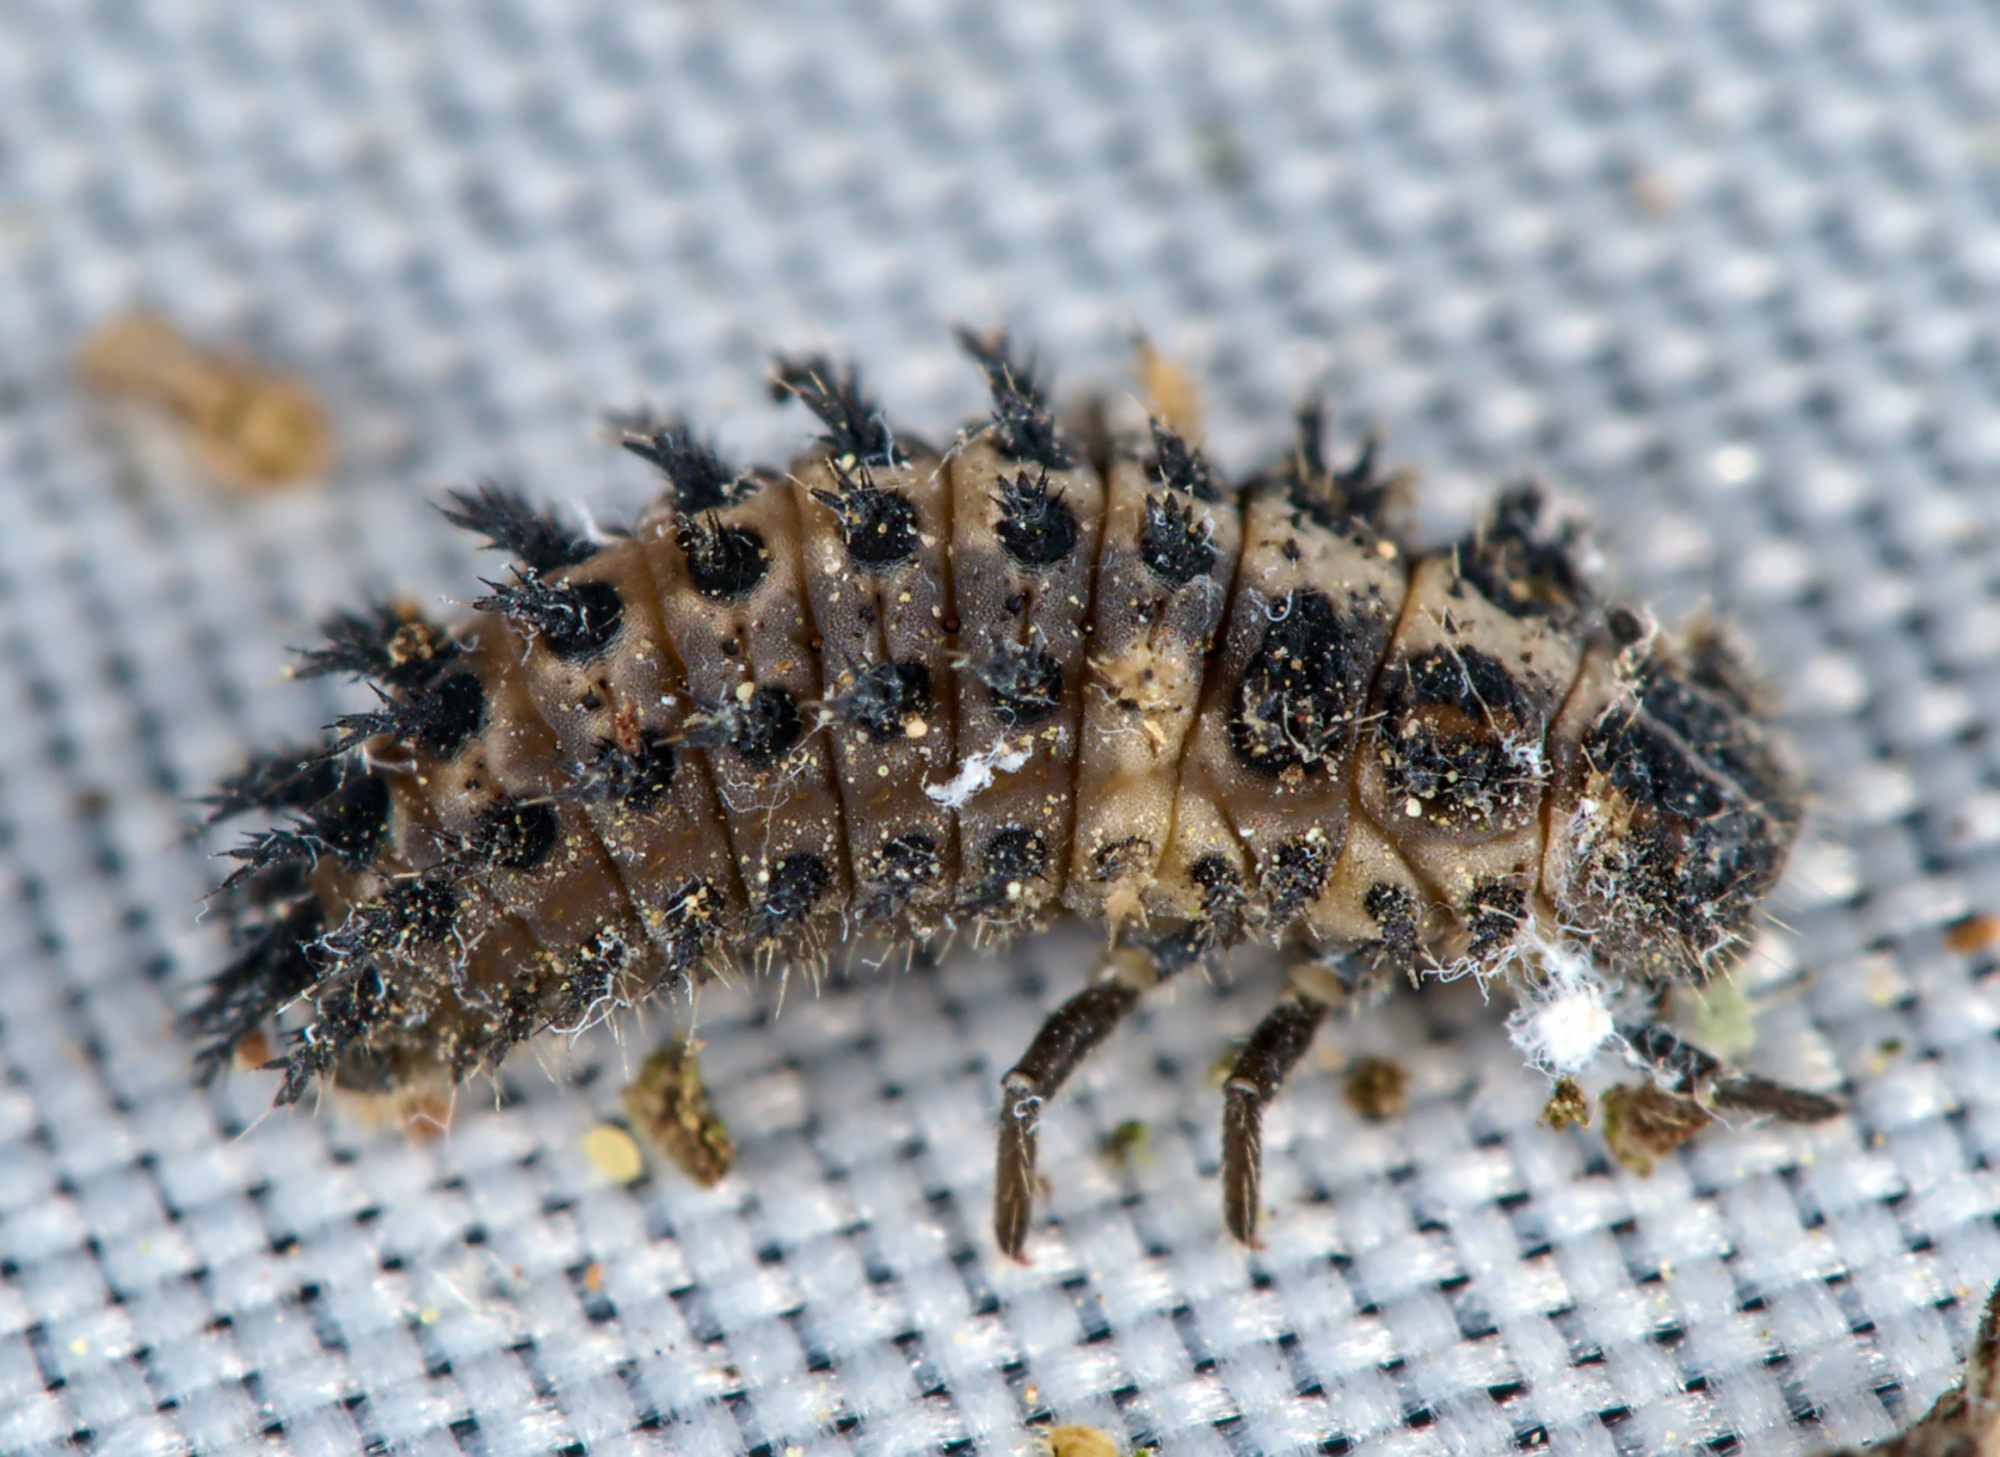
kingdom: Animalia
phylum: Arthropoda
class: Insecta
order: Coleoptera
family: Coccinellidae
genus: Brumus
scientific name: Brumus quadripustulatus
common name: Ladybird beetle
